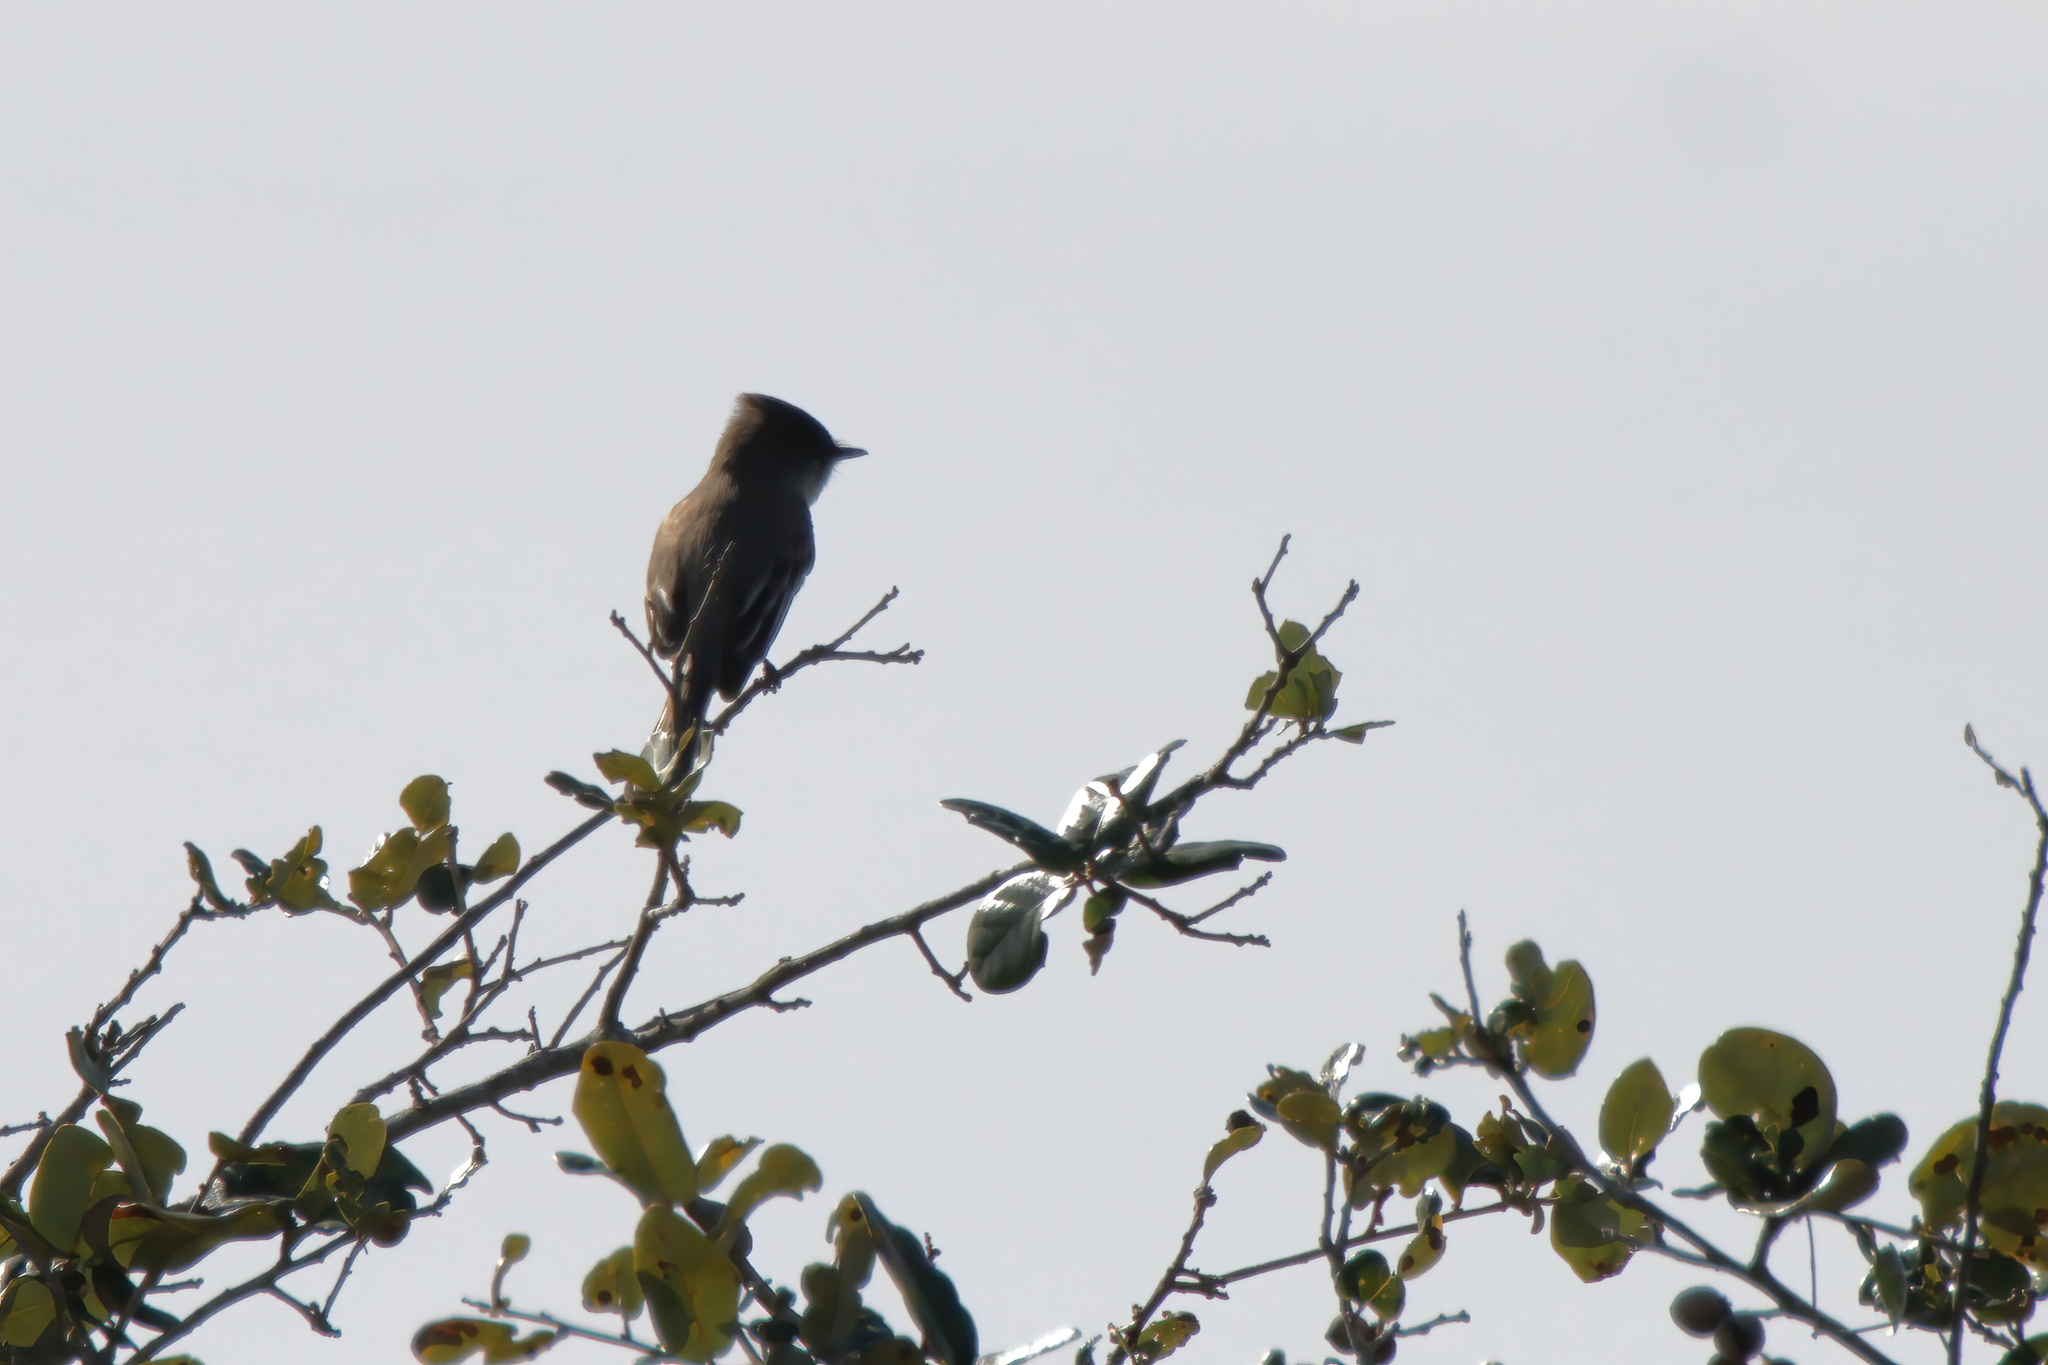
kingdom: Animalia
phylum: Chordata
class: Aves
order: Passeriformes
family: Tyrannidae
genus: Sayornis
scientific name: Sayornis phoebe
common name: Eastern phoebe
